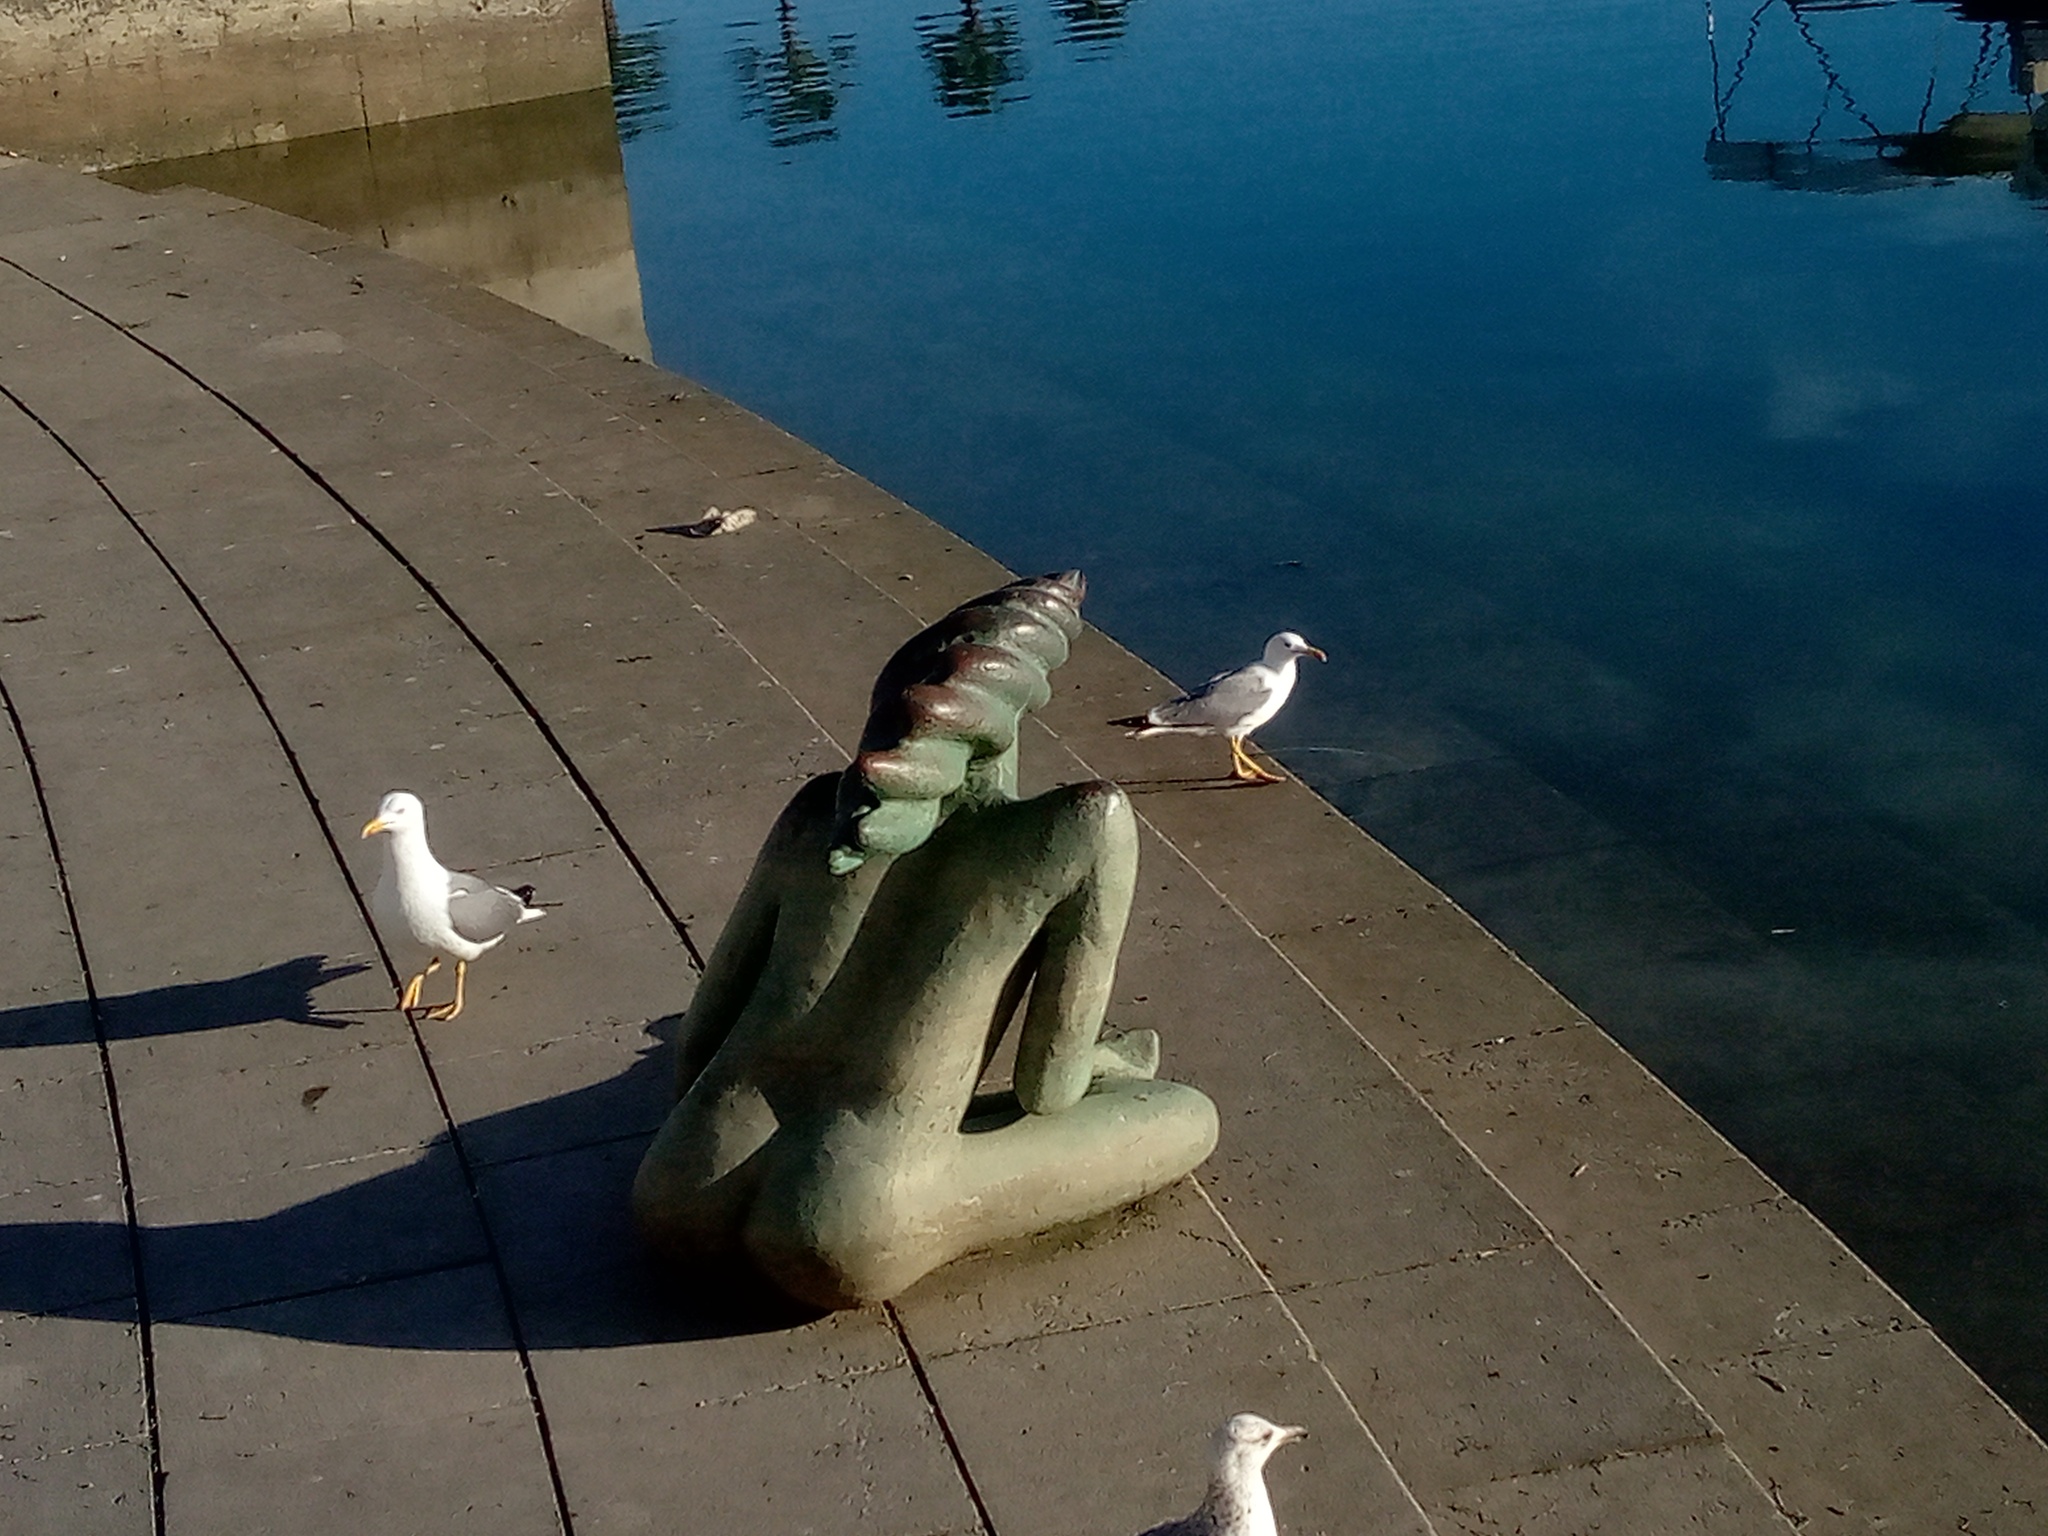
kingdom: Animalia
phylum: Chordata
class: Aves
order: Charadriiformes
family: Laridae
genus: Larus
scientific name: Larus michahellis
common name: Yellow-legged gull
